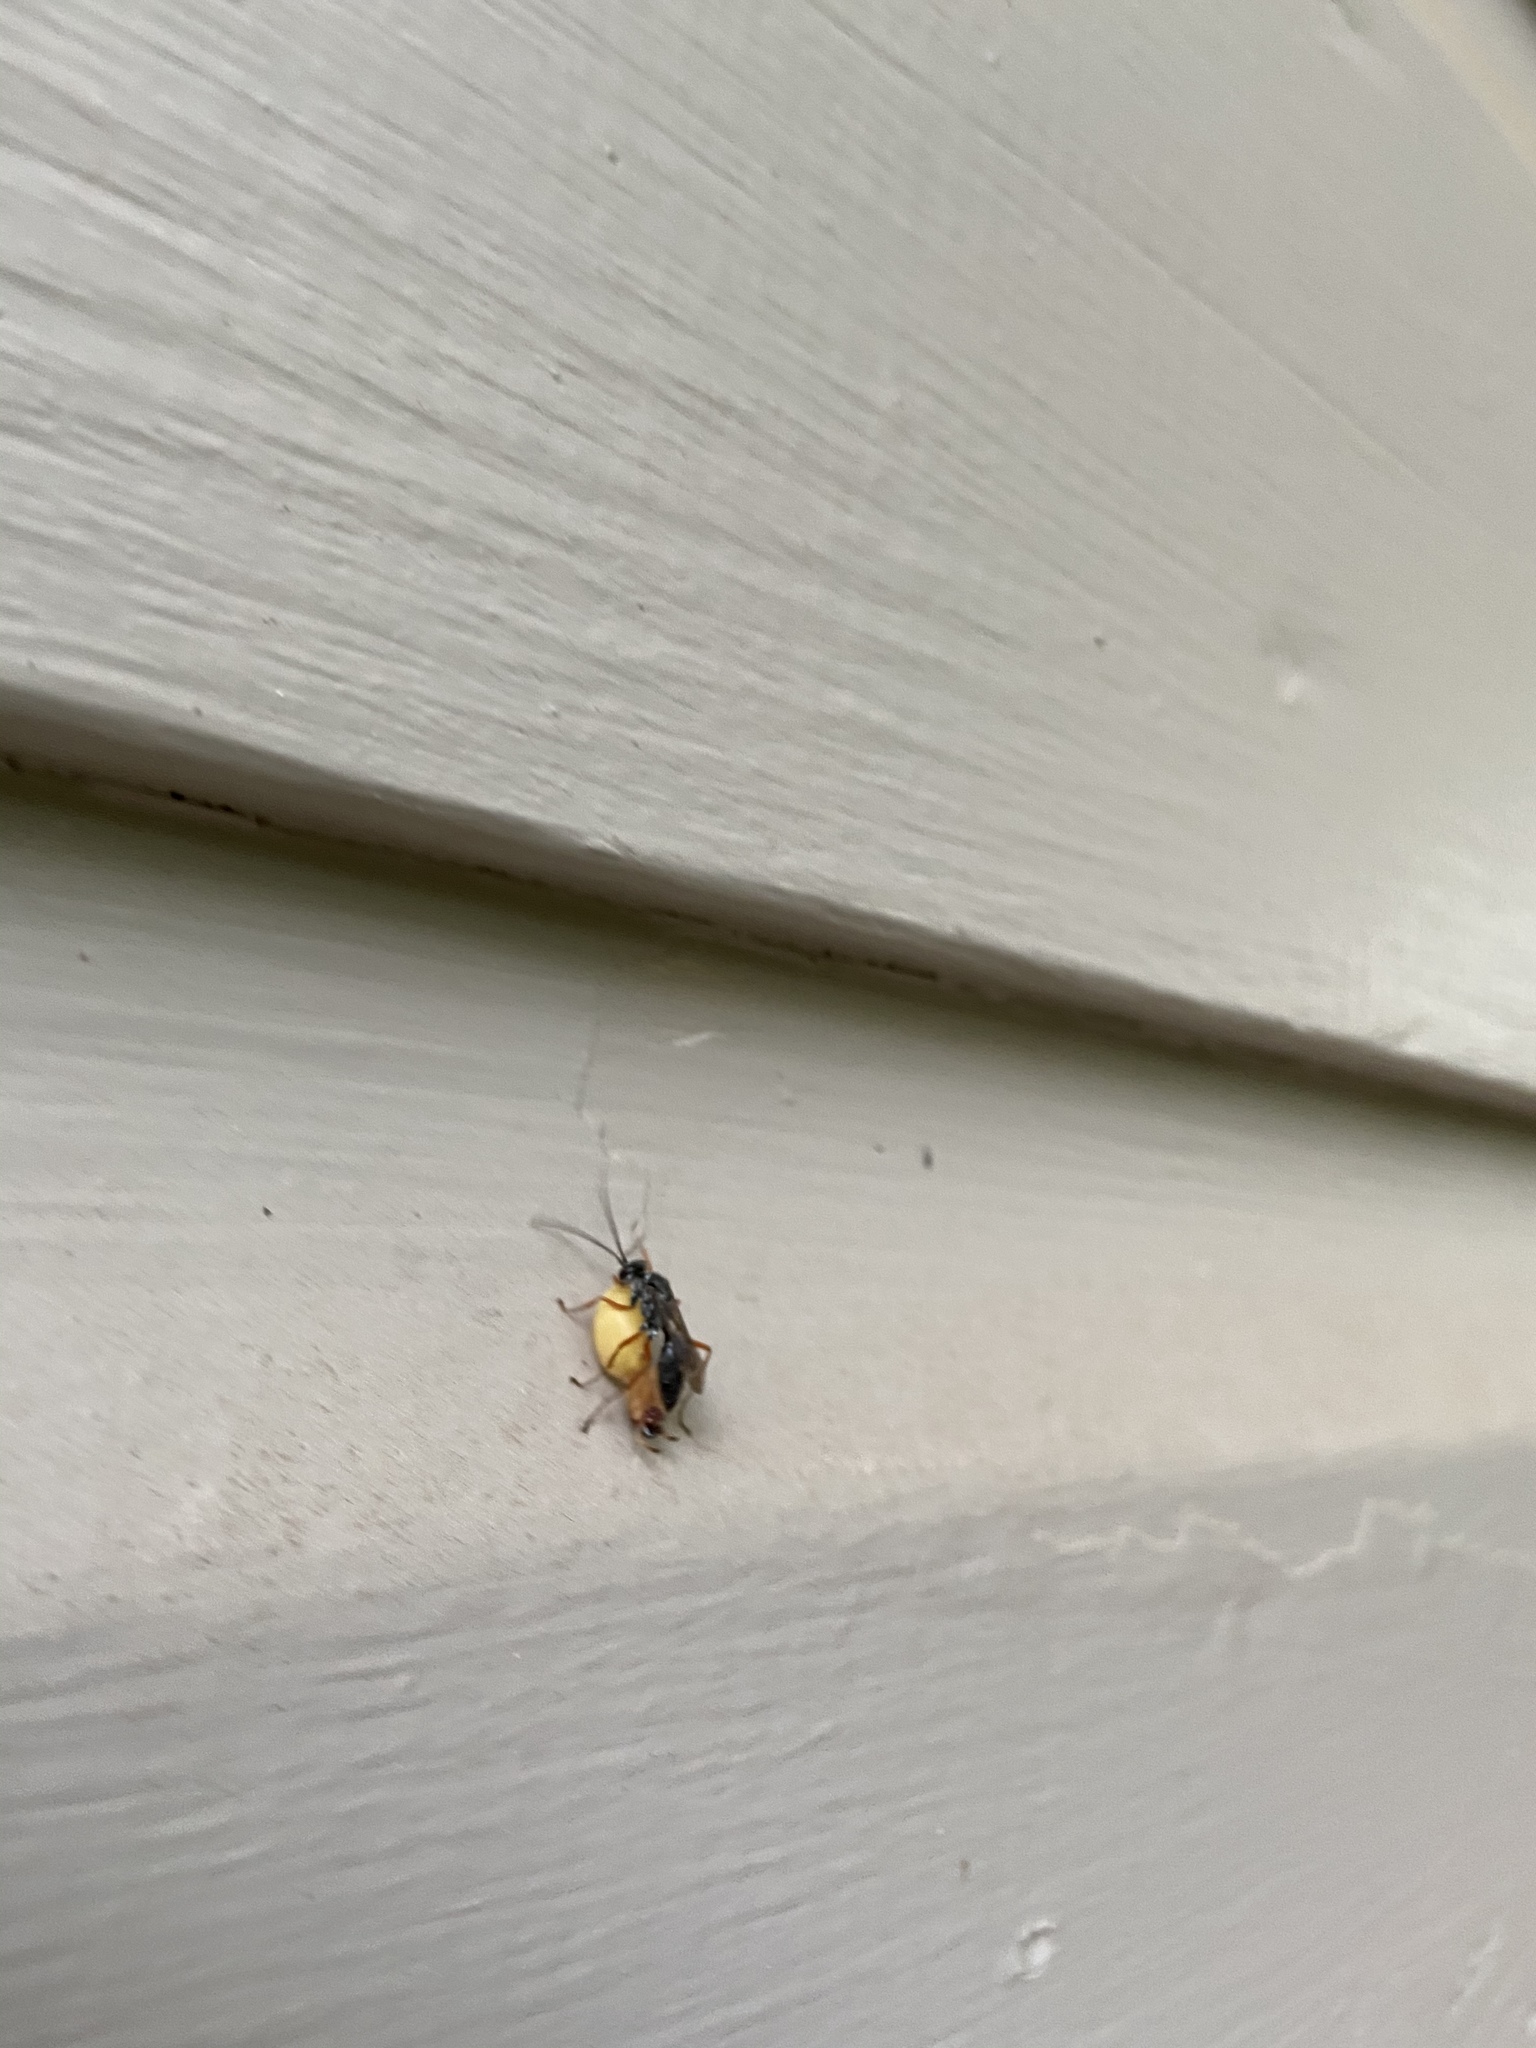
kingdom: Animalia
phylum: Arthropoda
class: Insecta
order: Hymenoptera
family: Pompilidae
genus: Auplopus
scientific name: Auplopus mellipes
